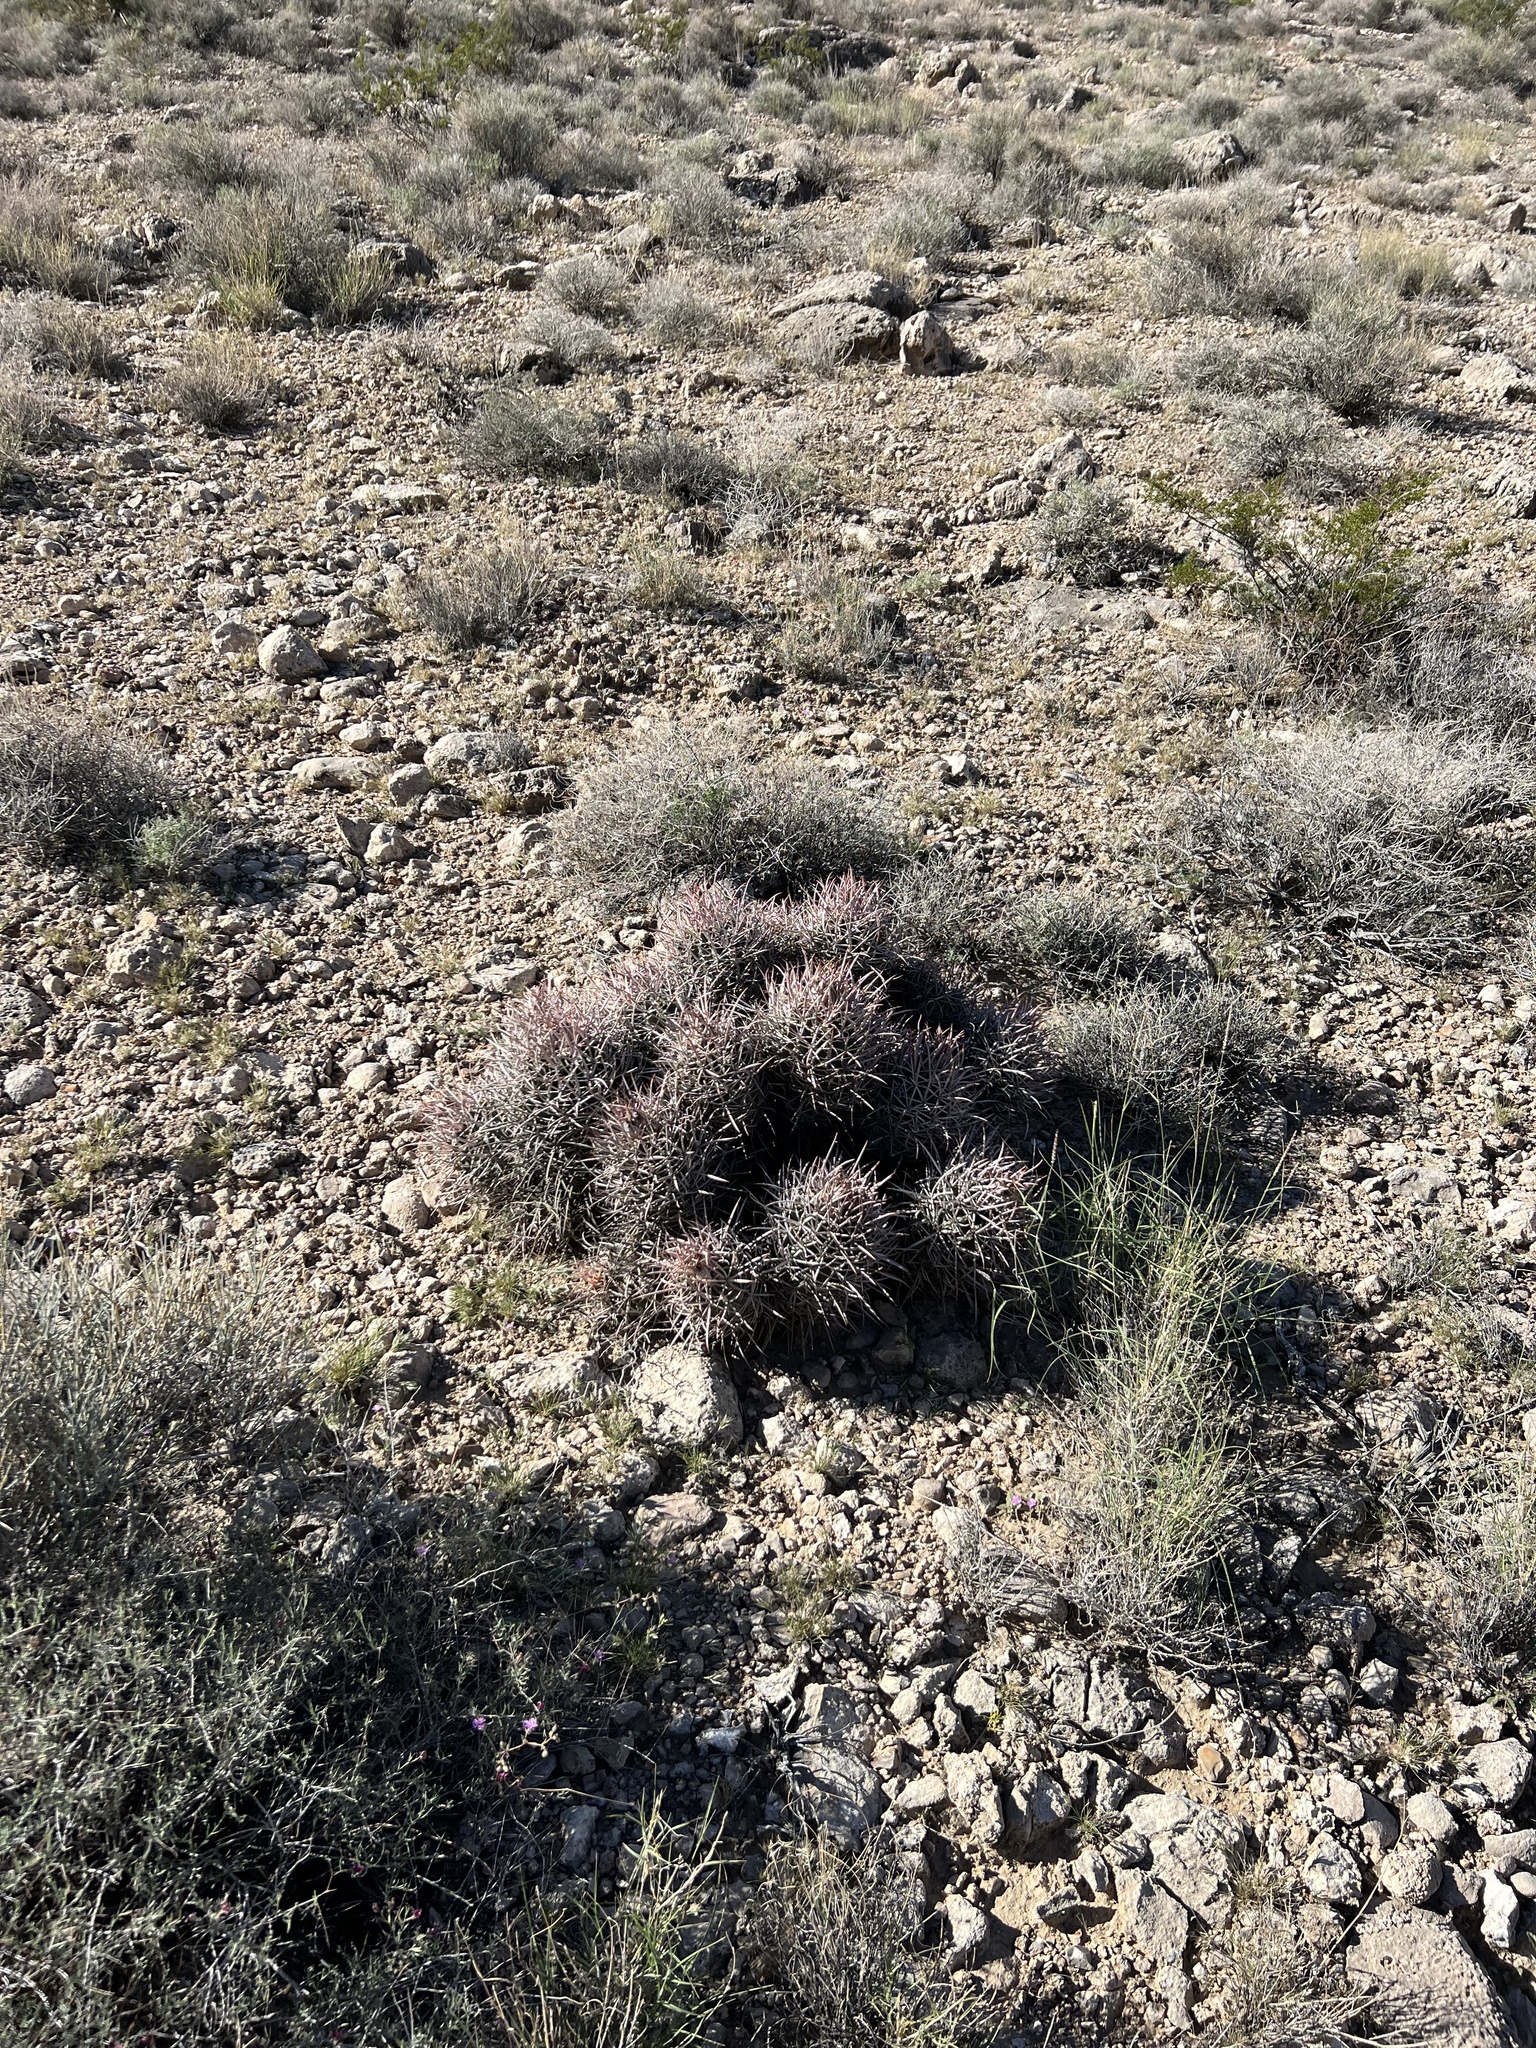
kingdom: Plantae
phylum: Tracheophyta
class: Magnoliopsida
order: Caryophyllales
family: Cactaceae
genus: Echinocactus
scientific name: Echinocactus polycephalus
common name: Cottontop cactus
